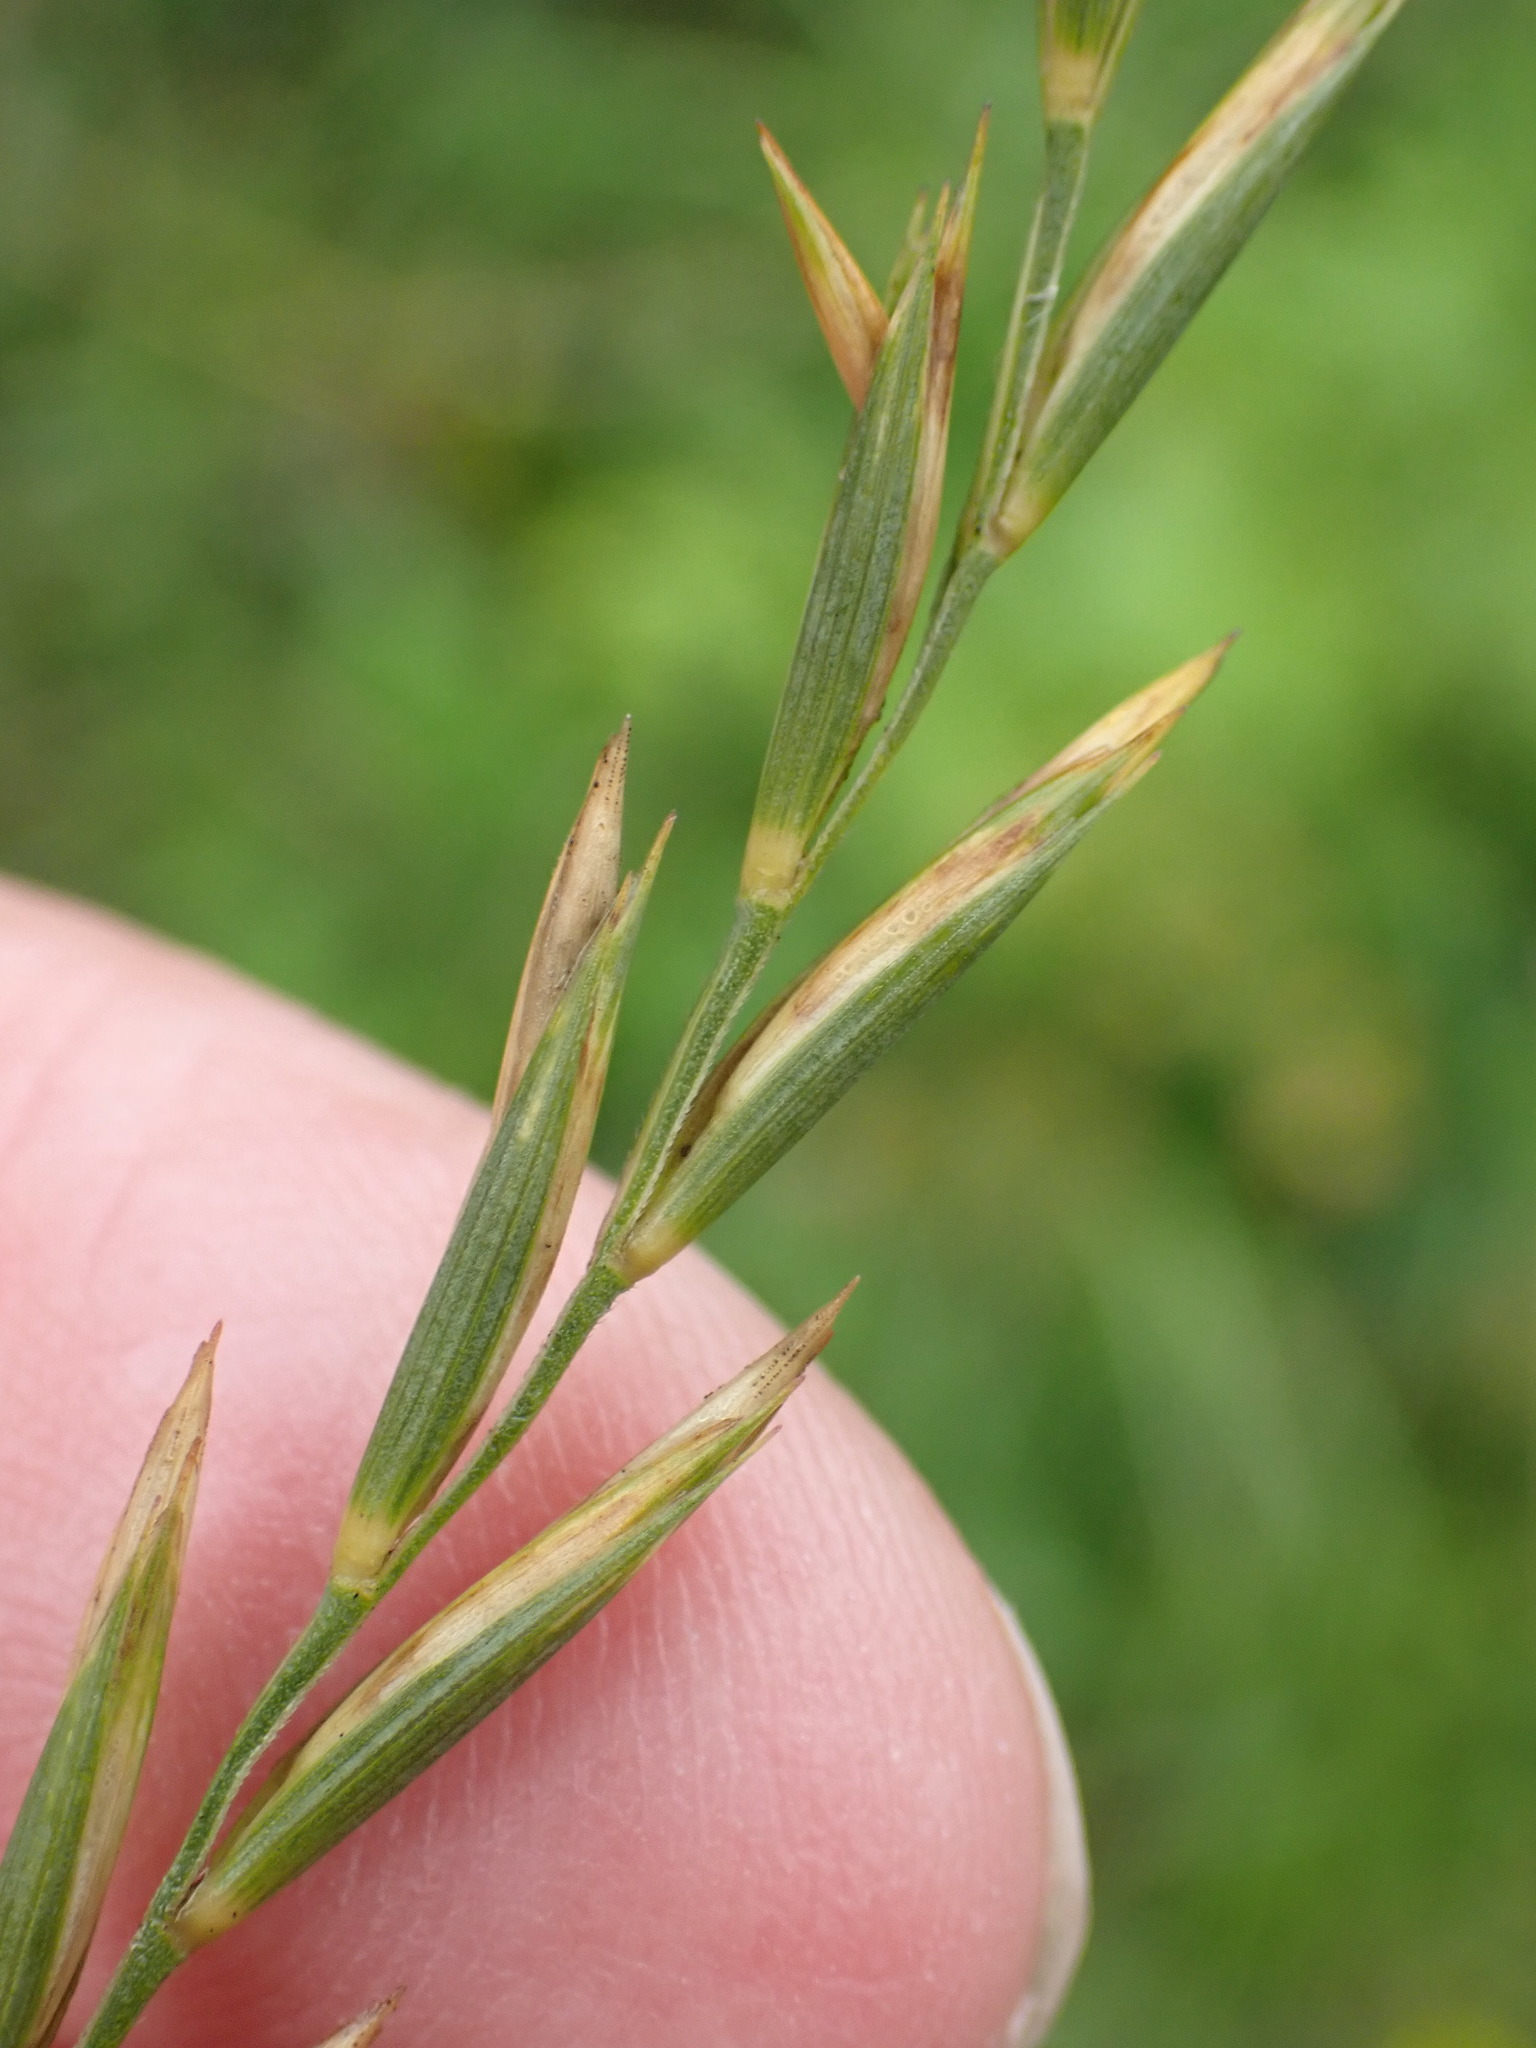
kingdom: Plantae
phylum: Tracheophyta
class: Liliopsida
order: Poales
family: Poaceae
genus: Elymus
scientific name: Elymus repens
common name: Quackgrass
